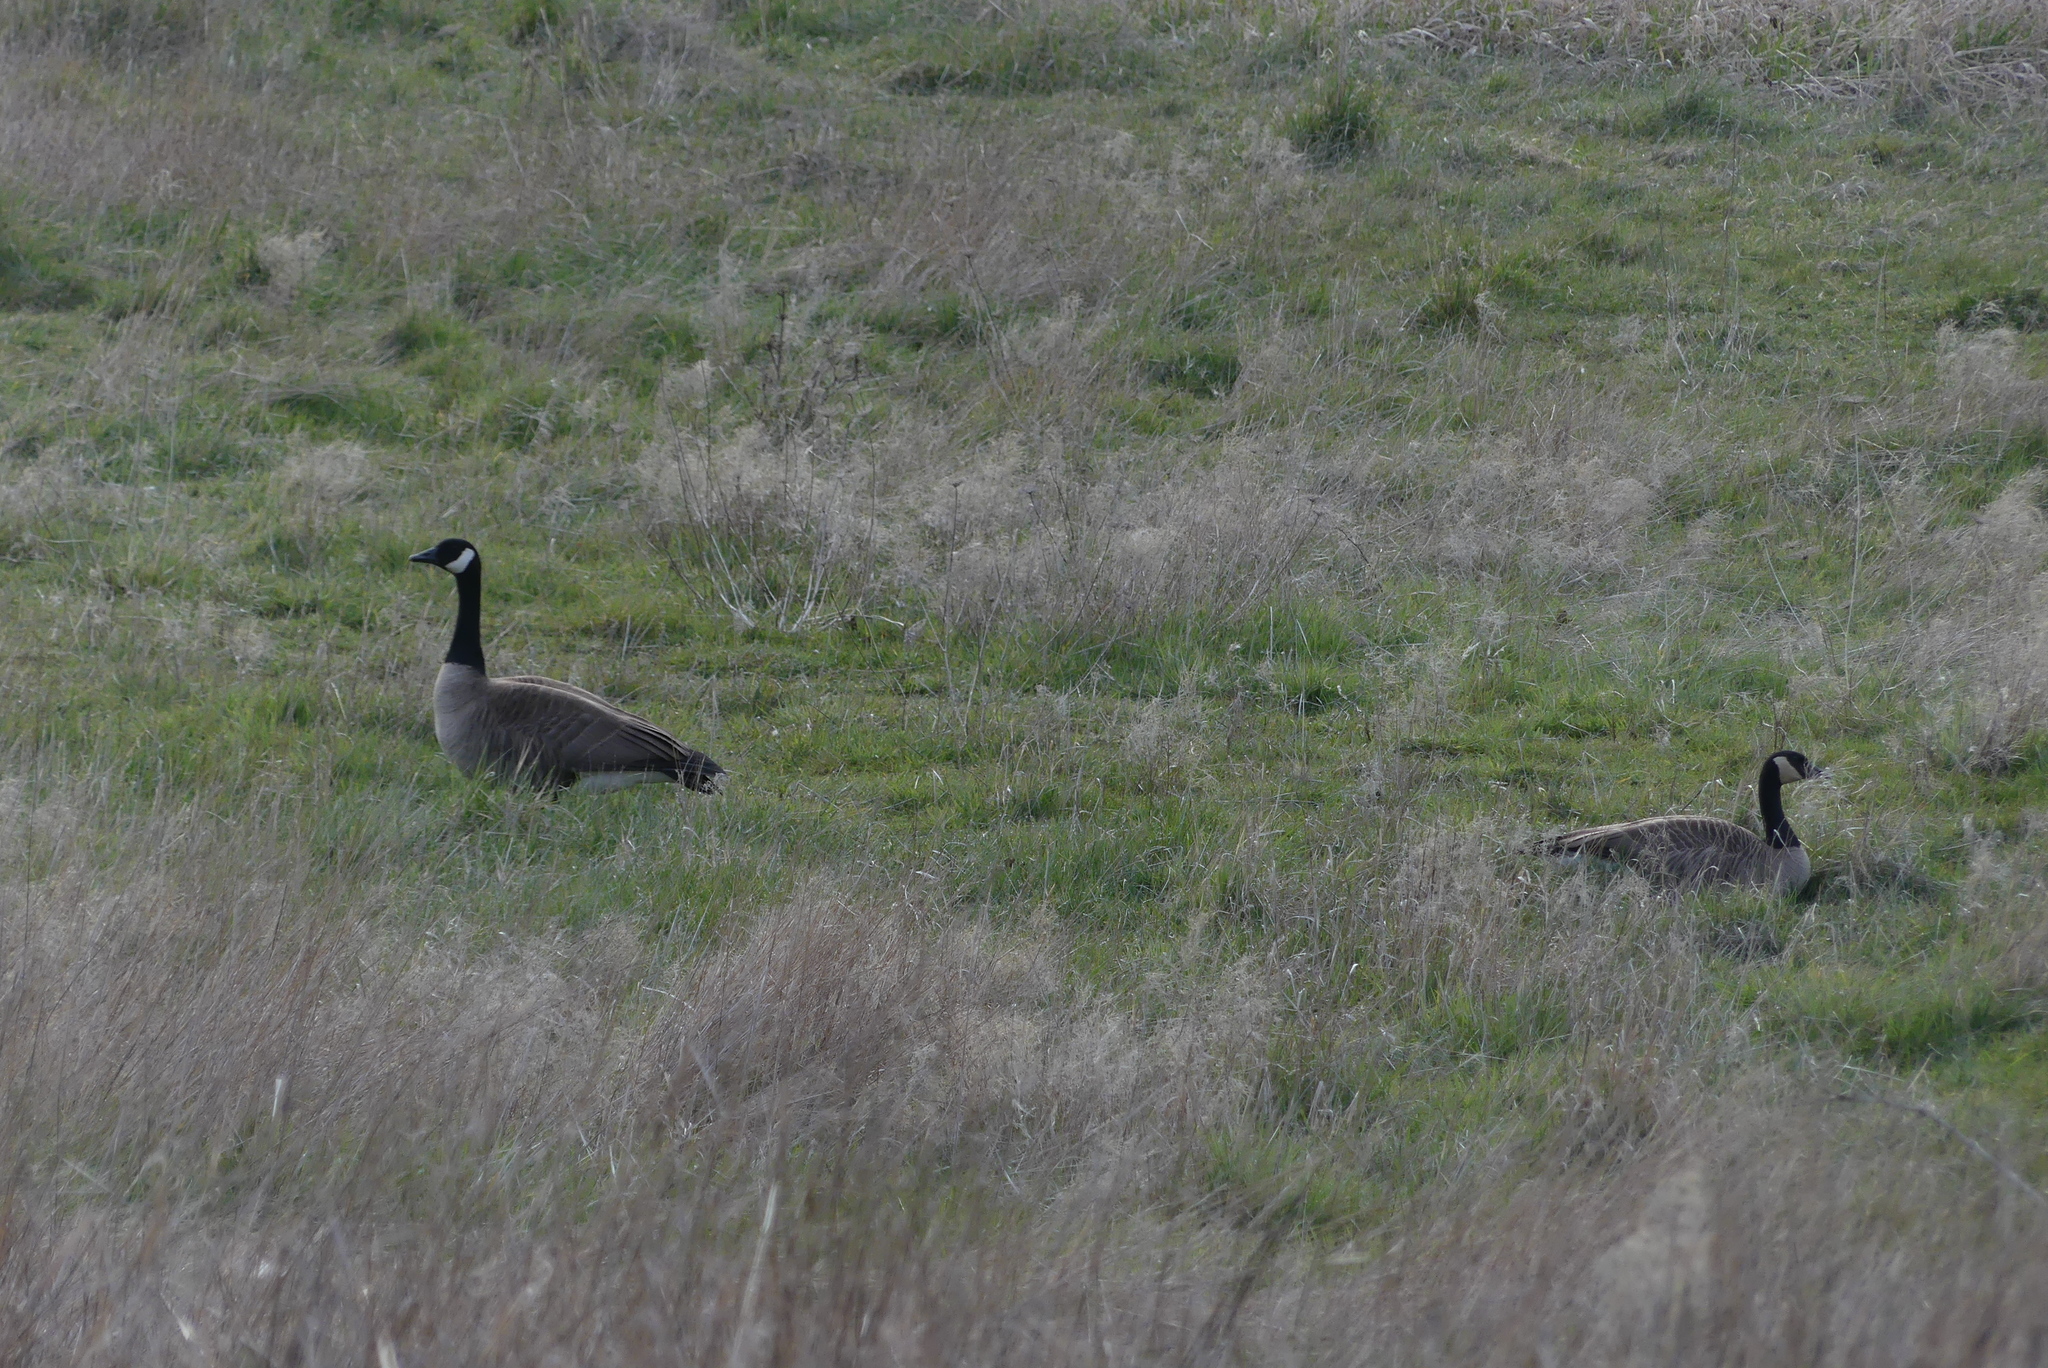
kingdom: Animalia
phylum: Chordata
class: Aves
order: Anseriformes
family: Anatidae
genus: Branta
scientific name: Branta canadensis
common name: Canada goose
